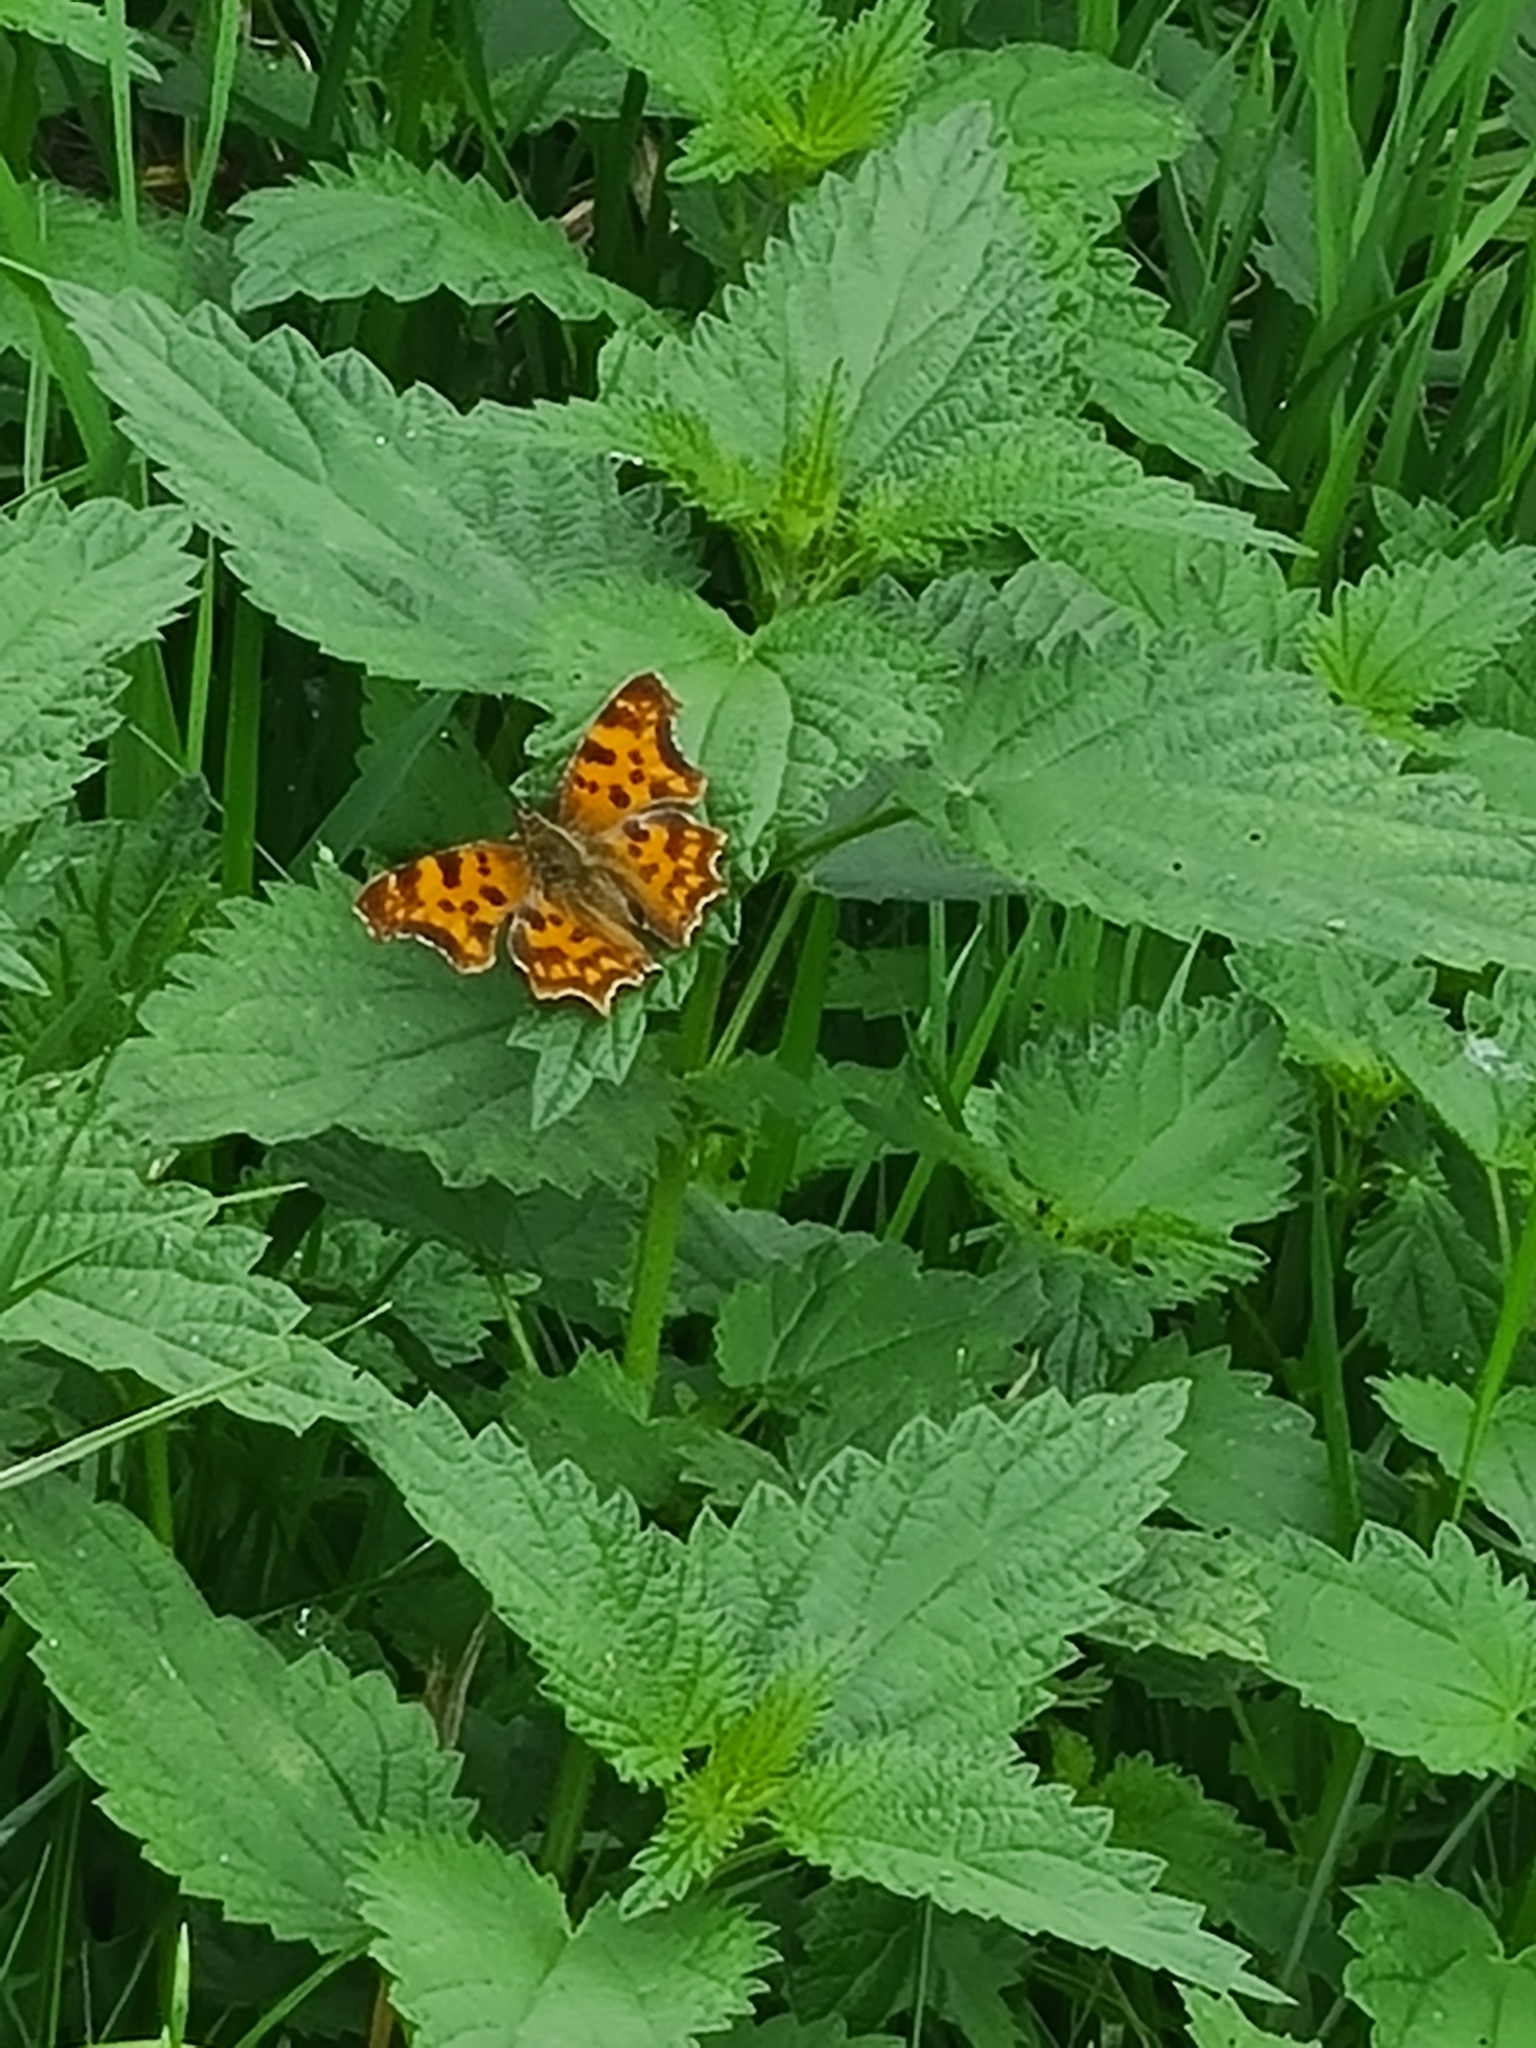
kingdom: Animalia
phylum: Arthropoda
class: Insecta
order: Lepidoptera
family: Nymphalidae
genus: Polygonia
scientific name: Polygonia c-album
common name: Comma
